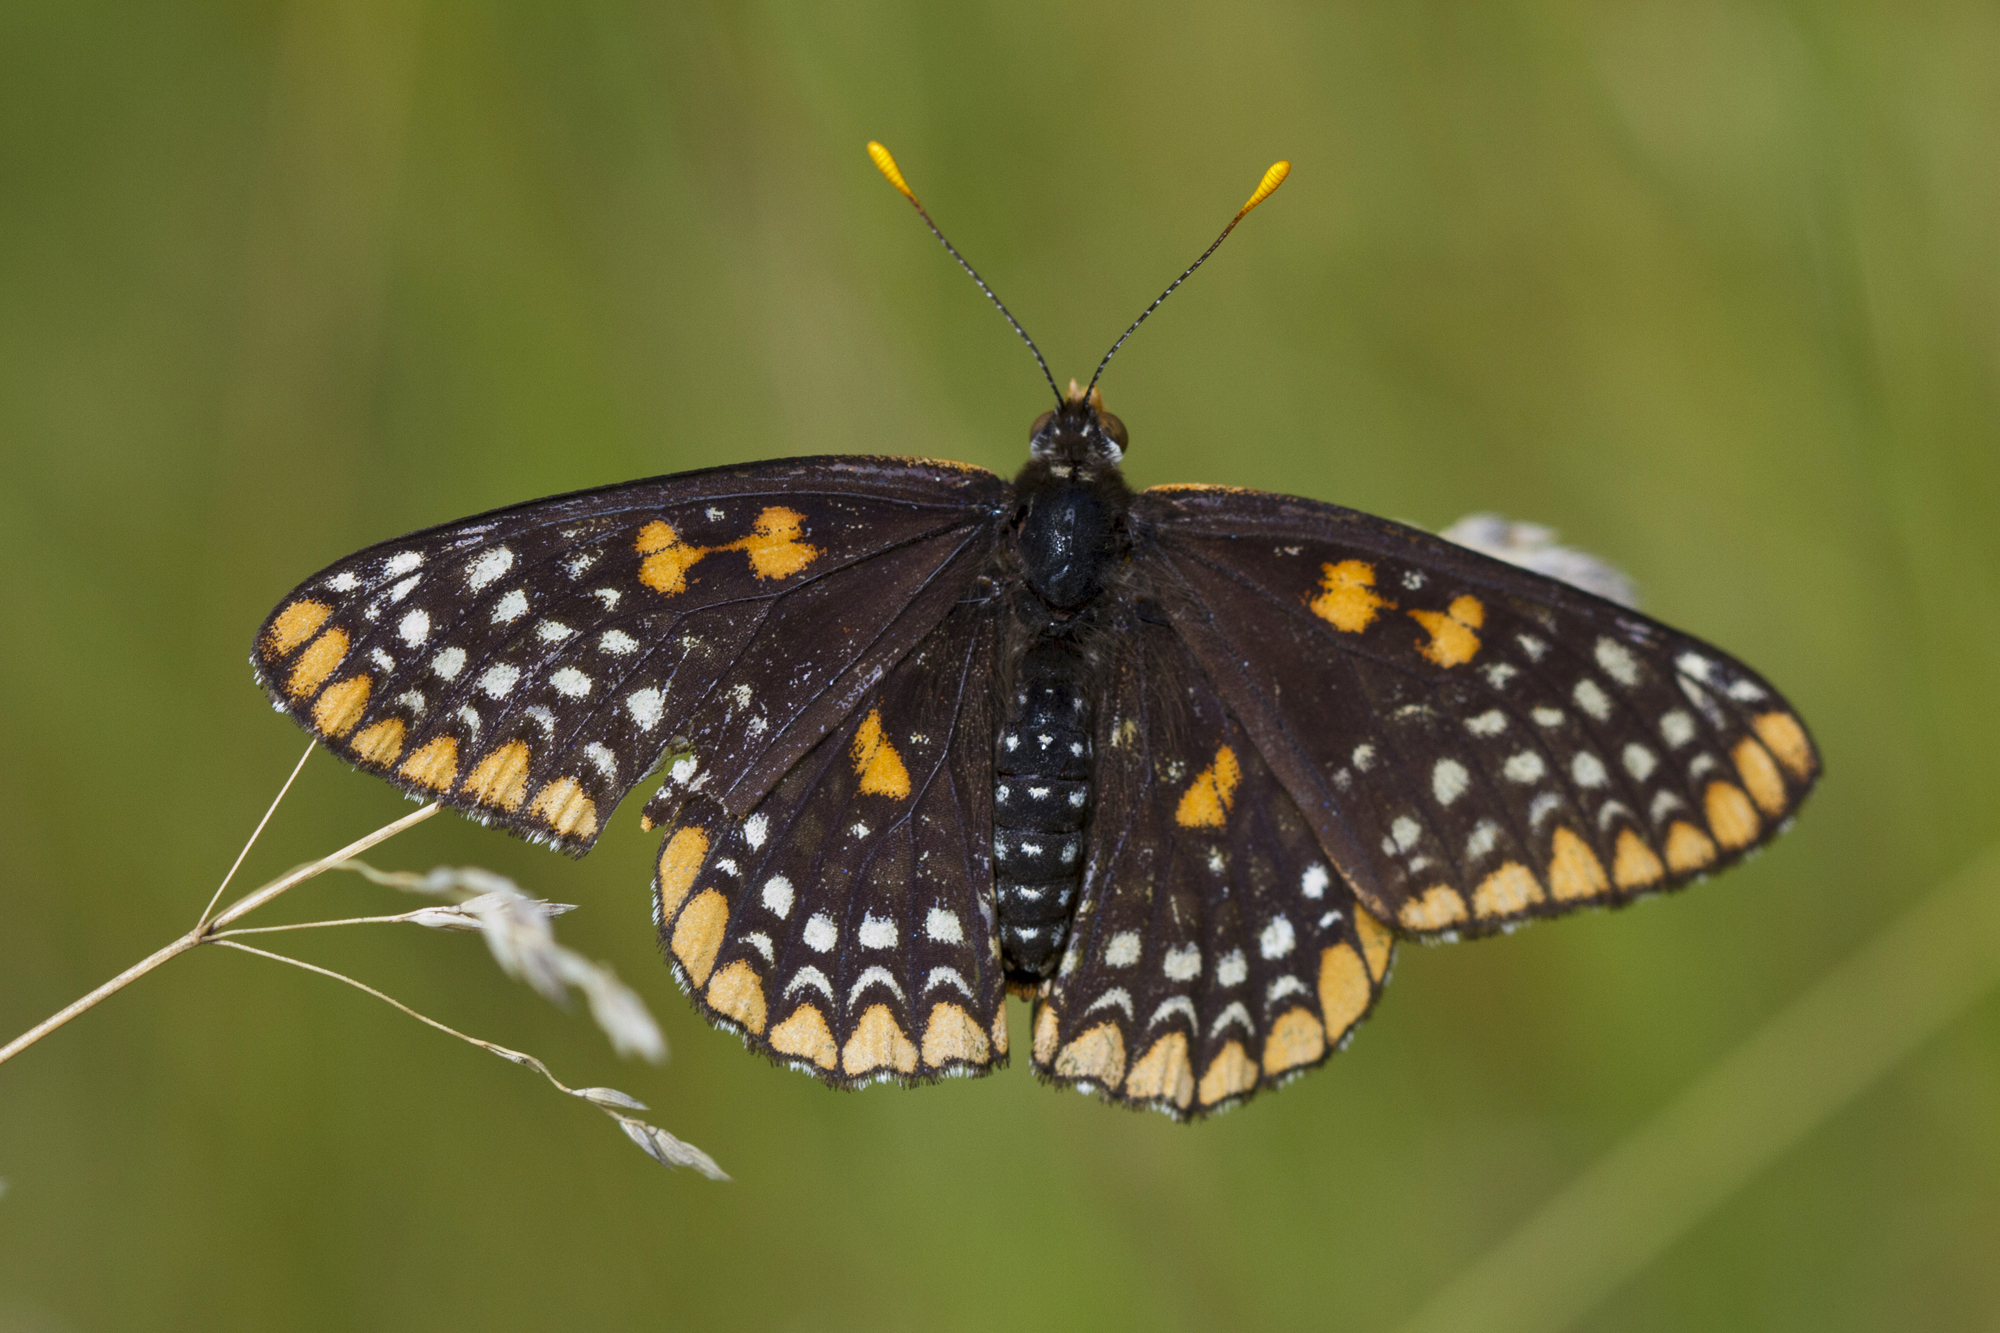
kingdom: Animalia
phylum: Arthropoda
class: Insecta
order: Lepidoptera
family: Nymphalidae
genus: Euphydryas
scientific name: Euphydryas phaeton
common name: Baltimore checkerspot
